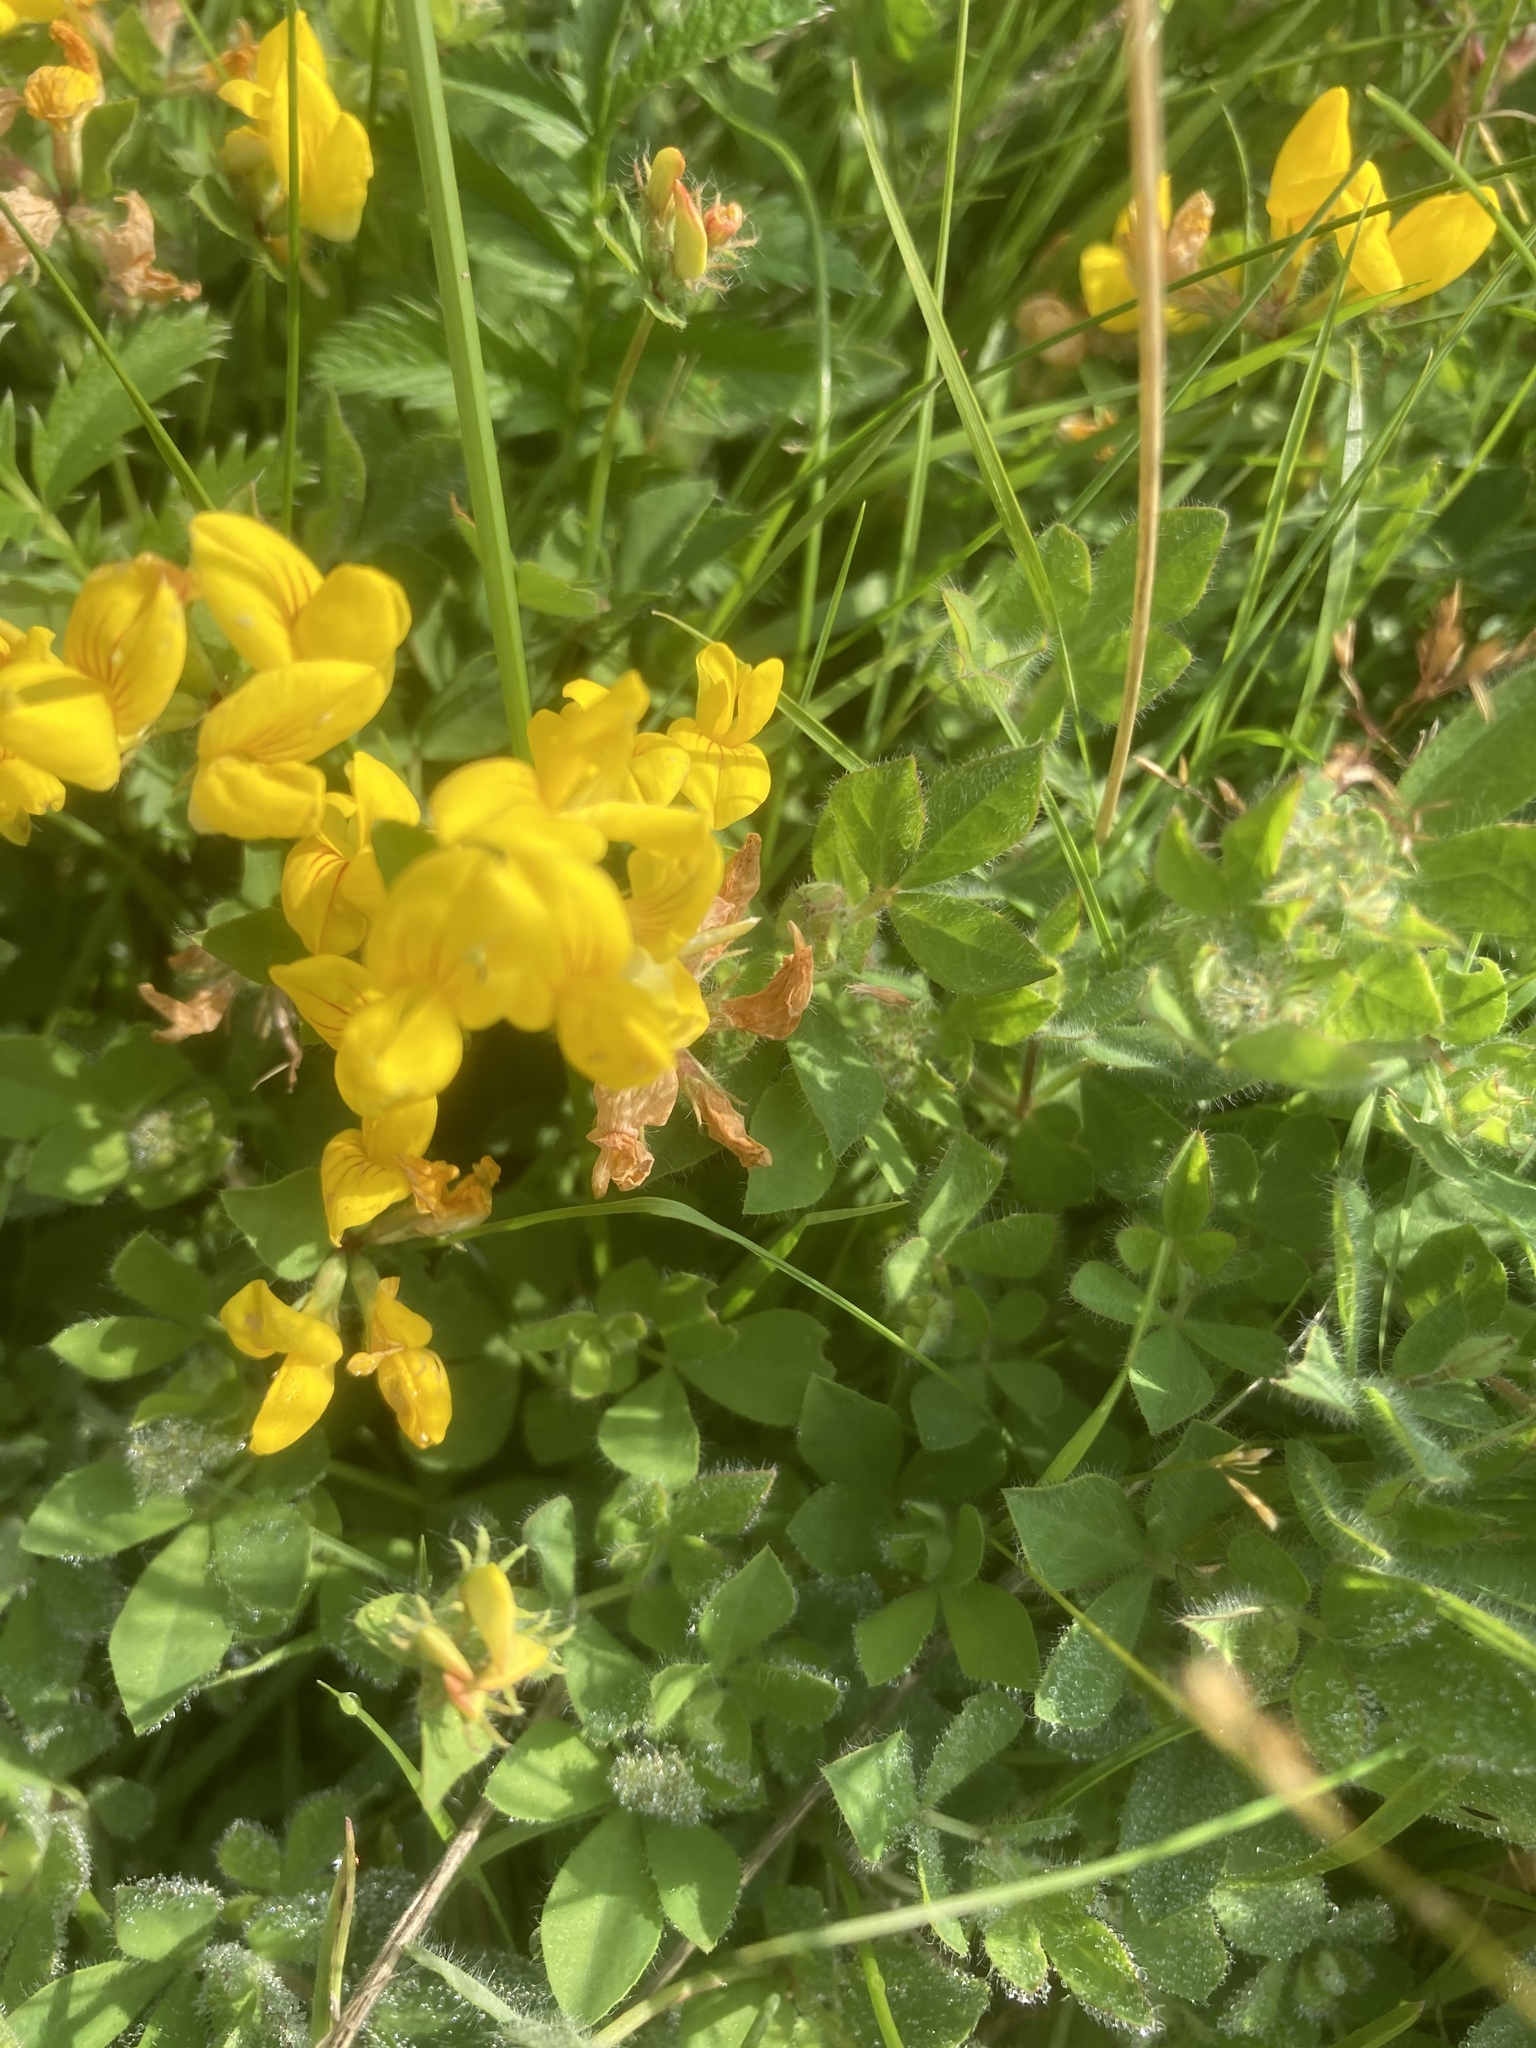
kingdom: Plantae
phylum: Tracheophyta
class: Magnoliopsida
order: Fabales
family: Fabaceae
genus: Lotus
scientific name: Lotus pedunculatus
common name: Greater birdsfoot-trefoil
